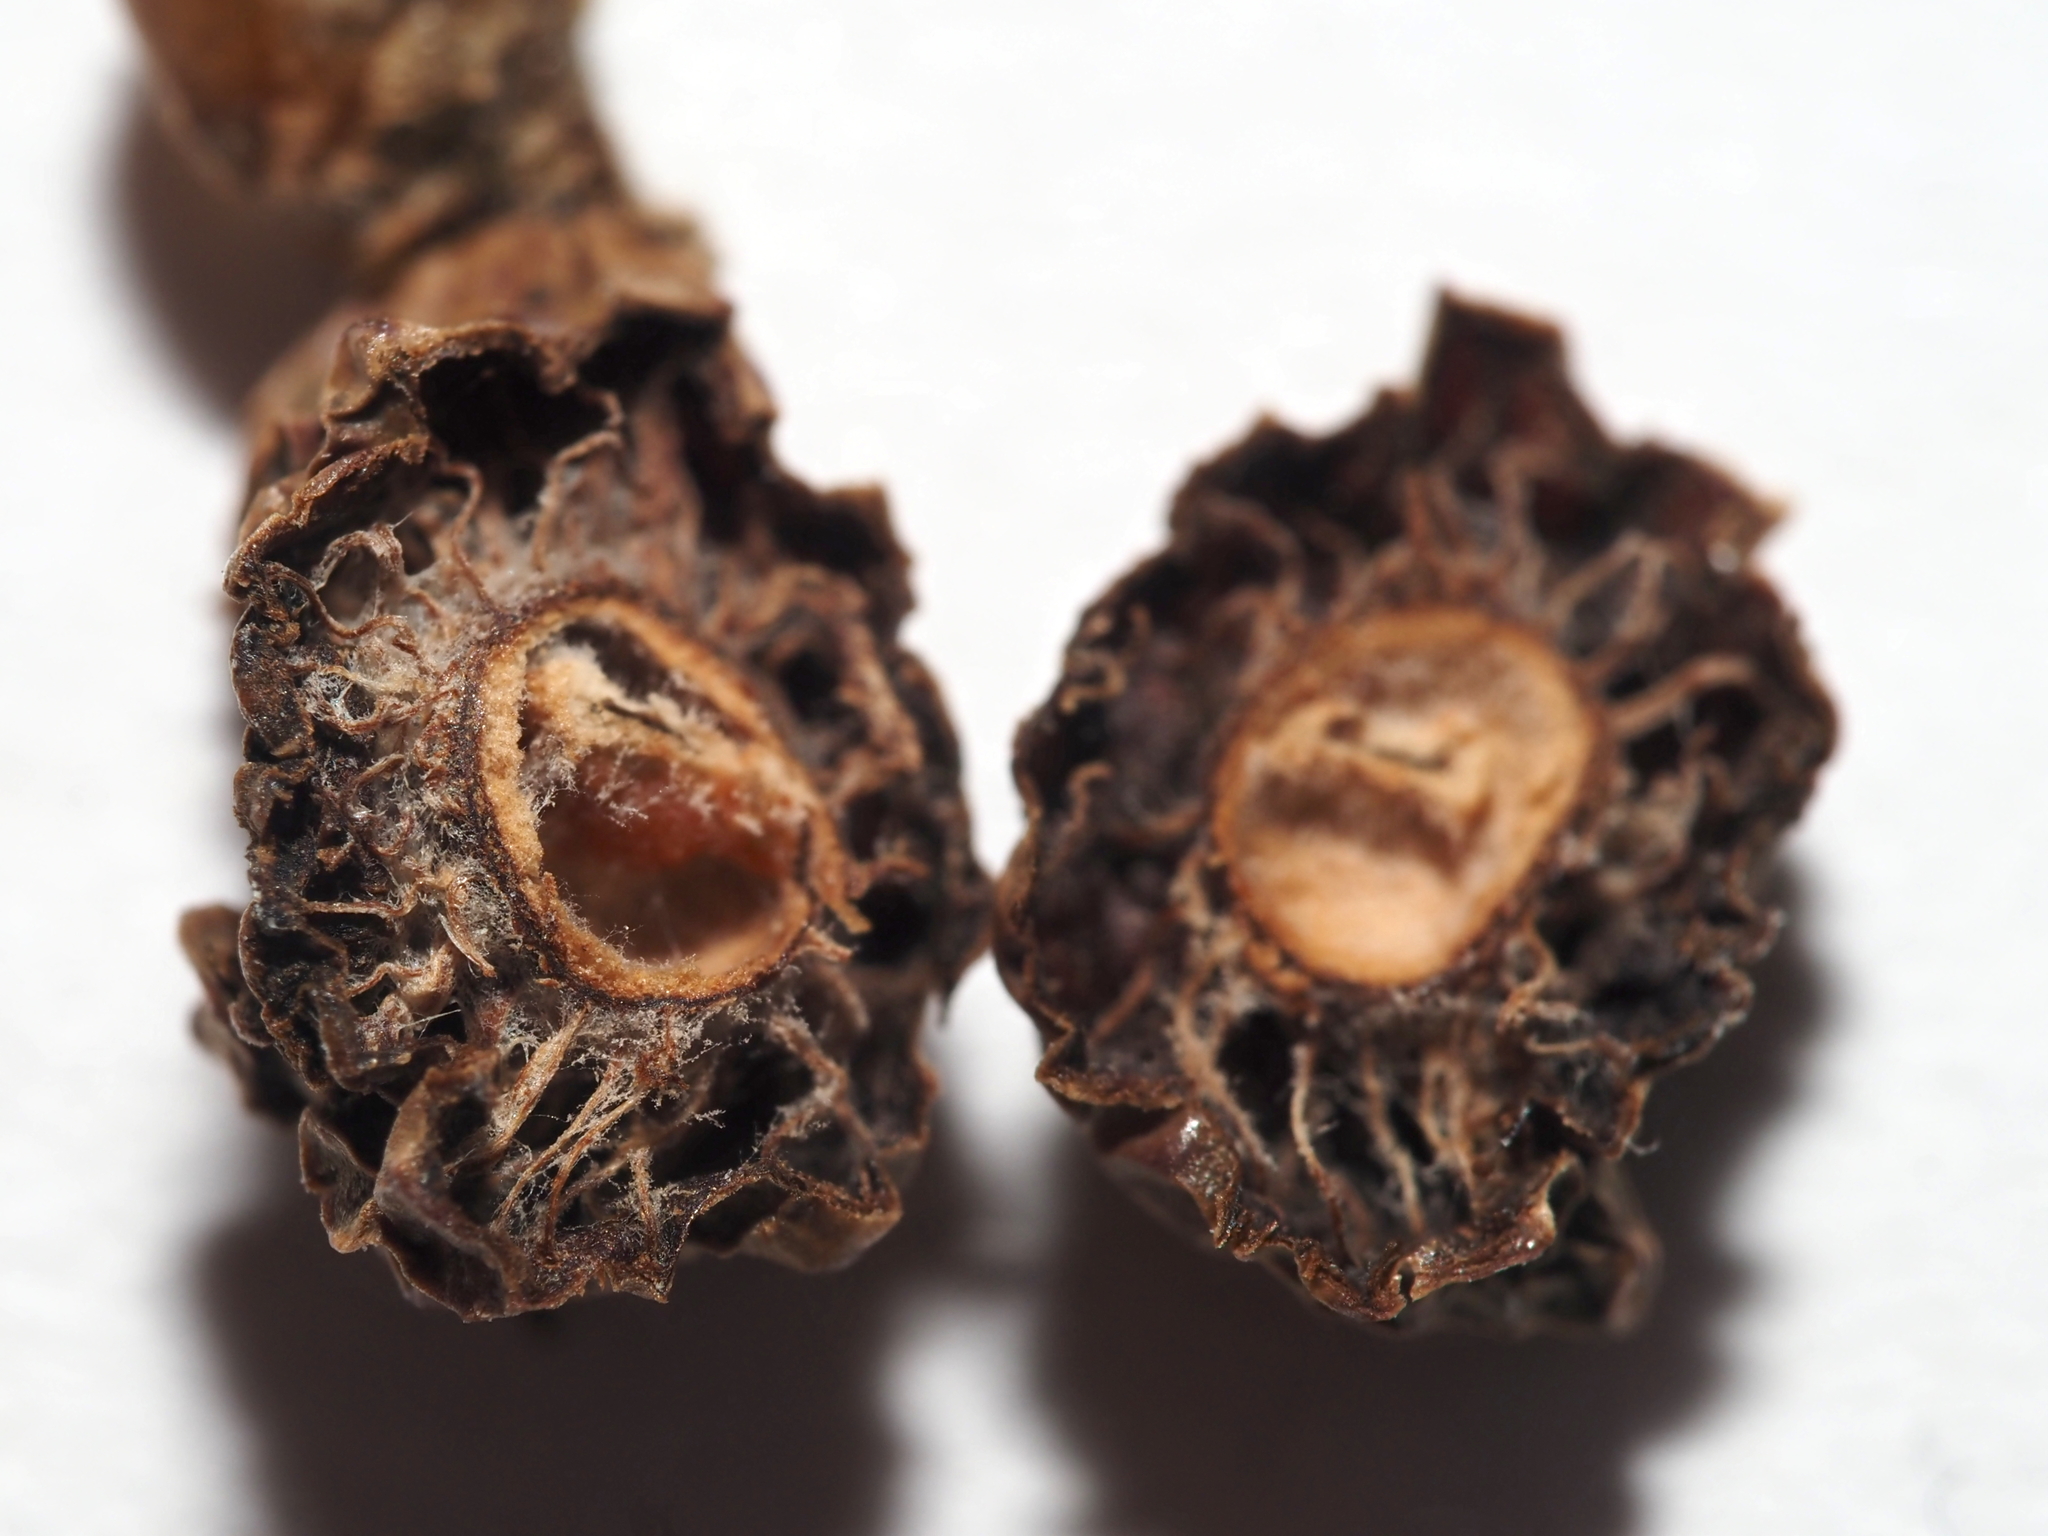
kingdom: Animalia
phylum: Arthropoda
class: Insecta
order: Hymenoptera
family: Cynipidae
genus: Amphibolips
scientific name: Amphibolips
